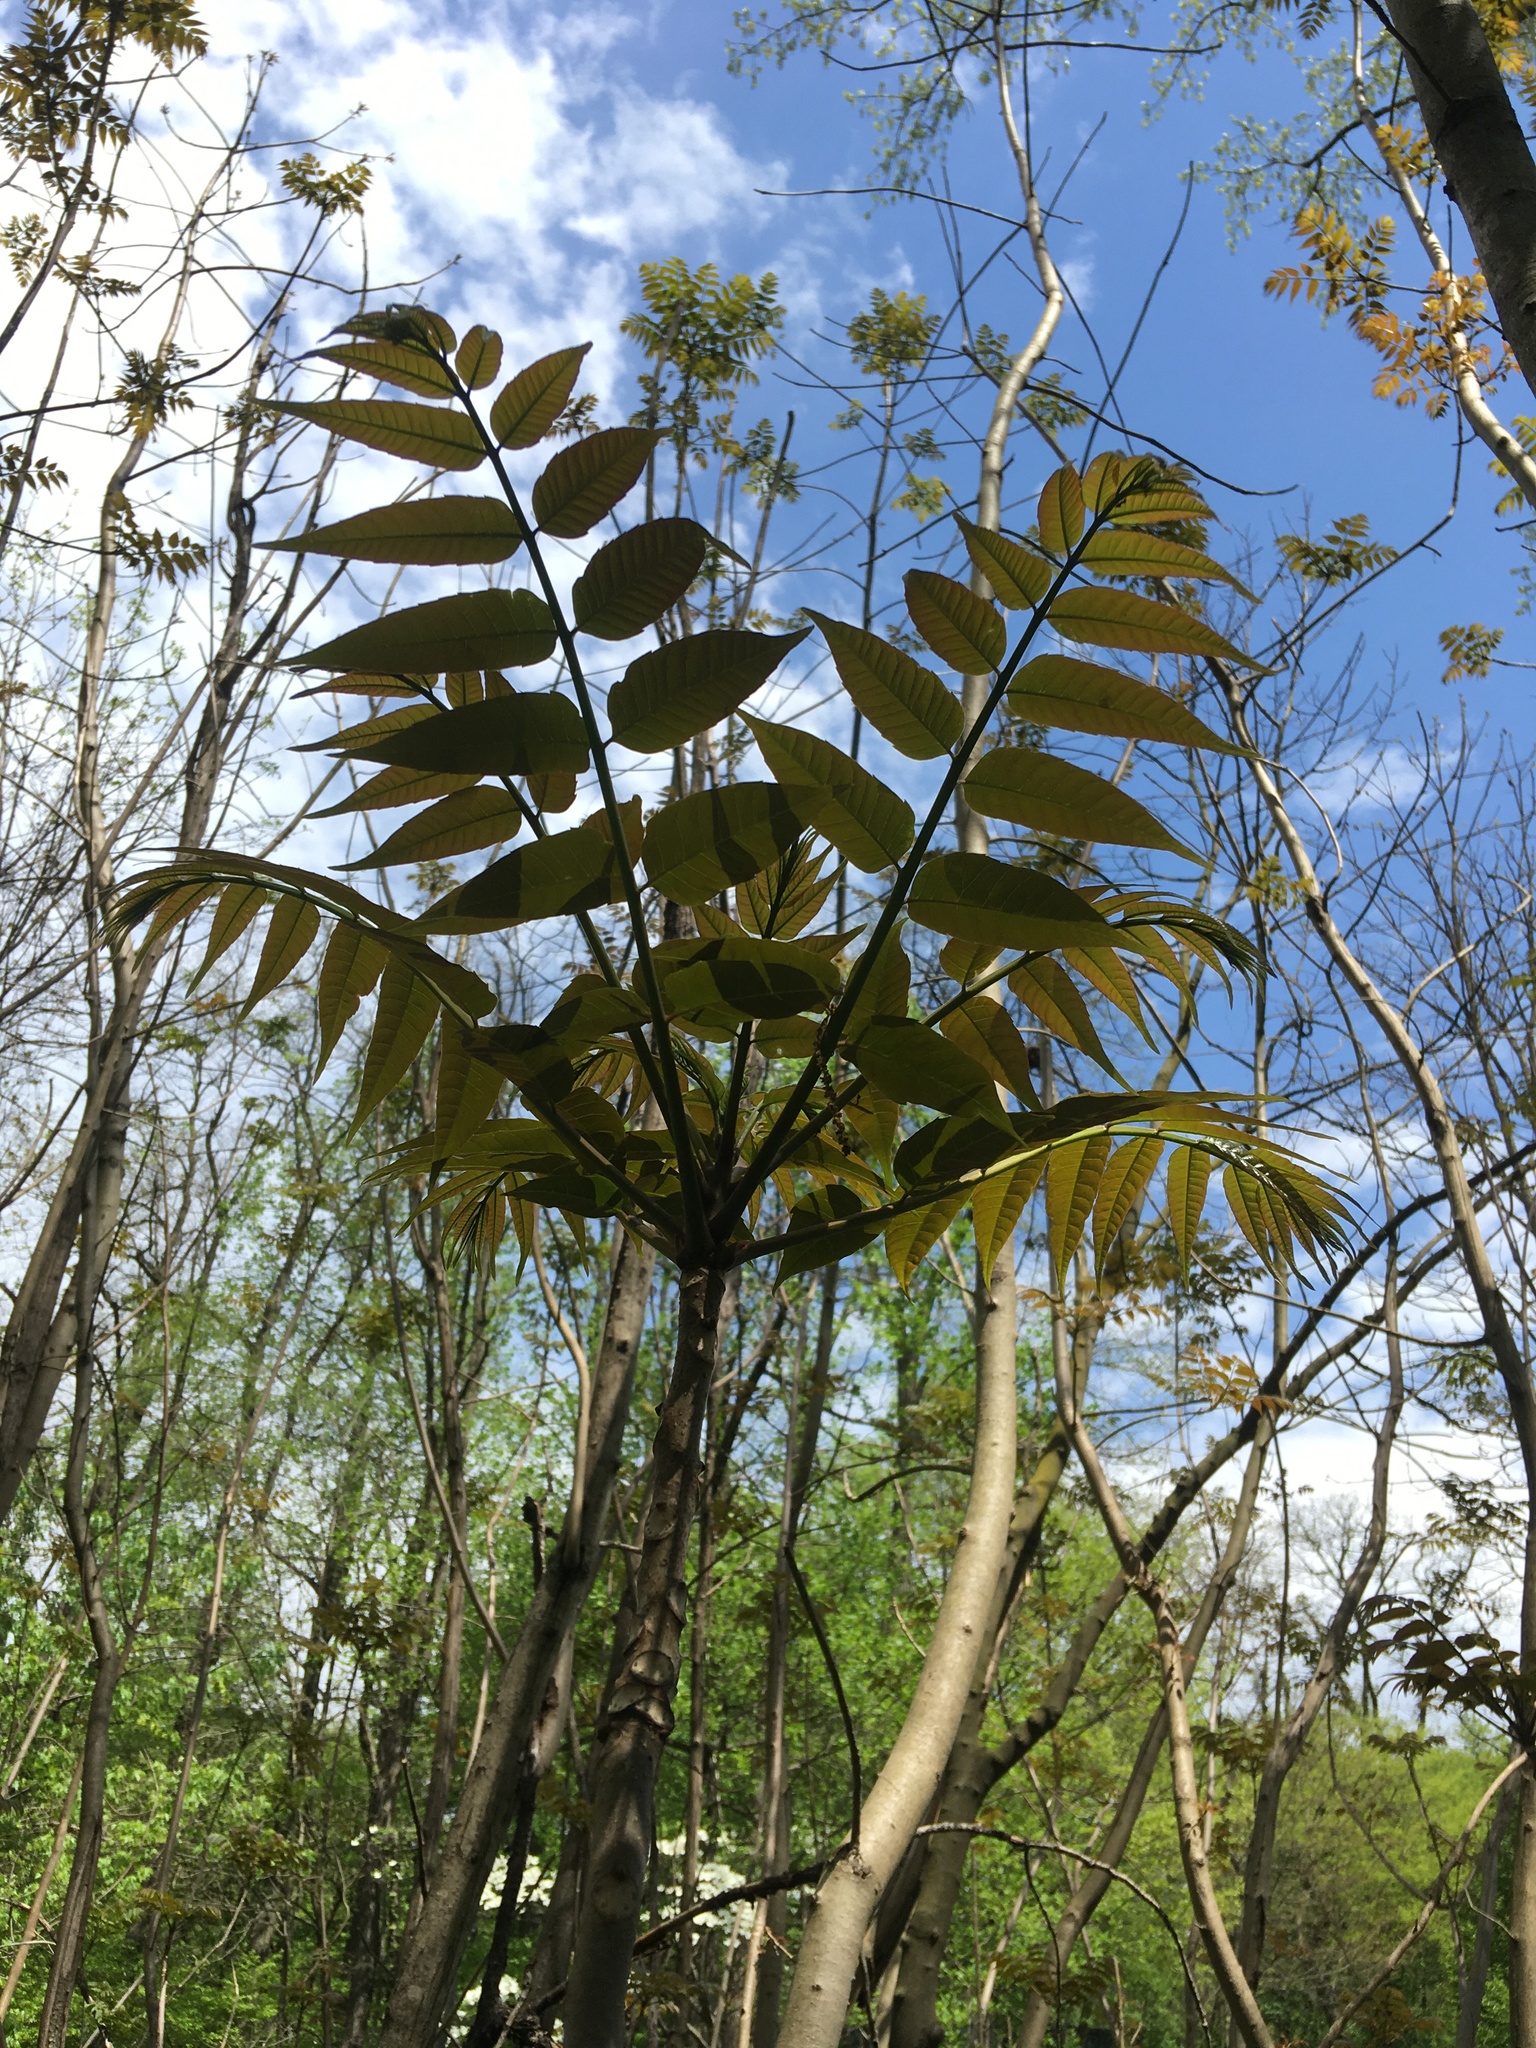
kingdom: Plantae
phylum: Tracheophyta
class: Magnoliopsida
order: Sapindales
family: Meliaceae
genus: Toona
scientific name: Toona sinensis
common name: Red toon
